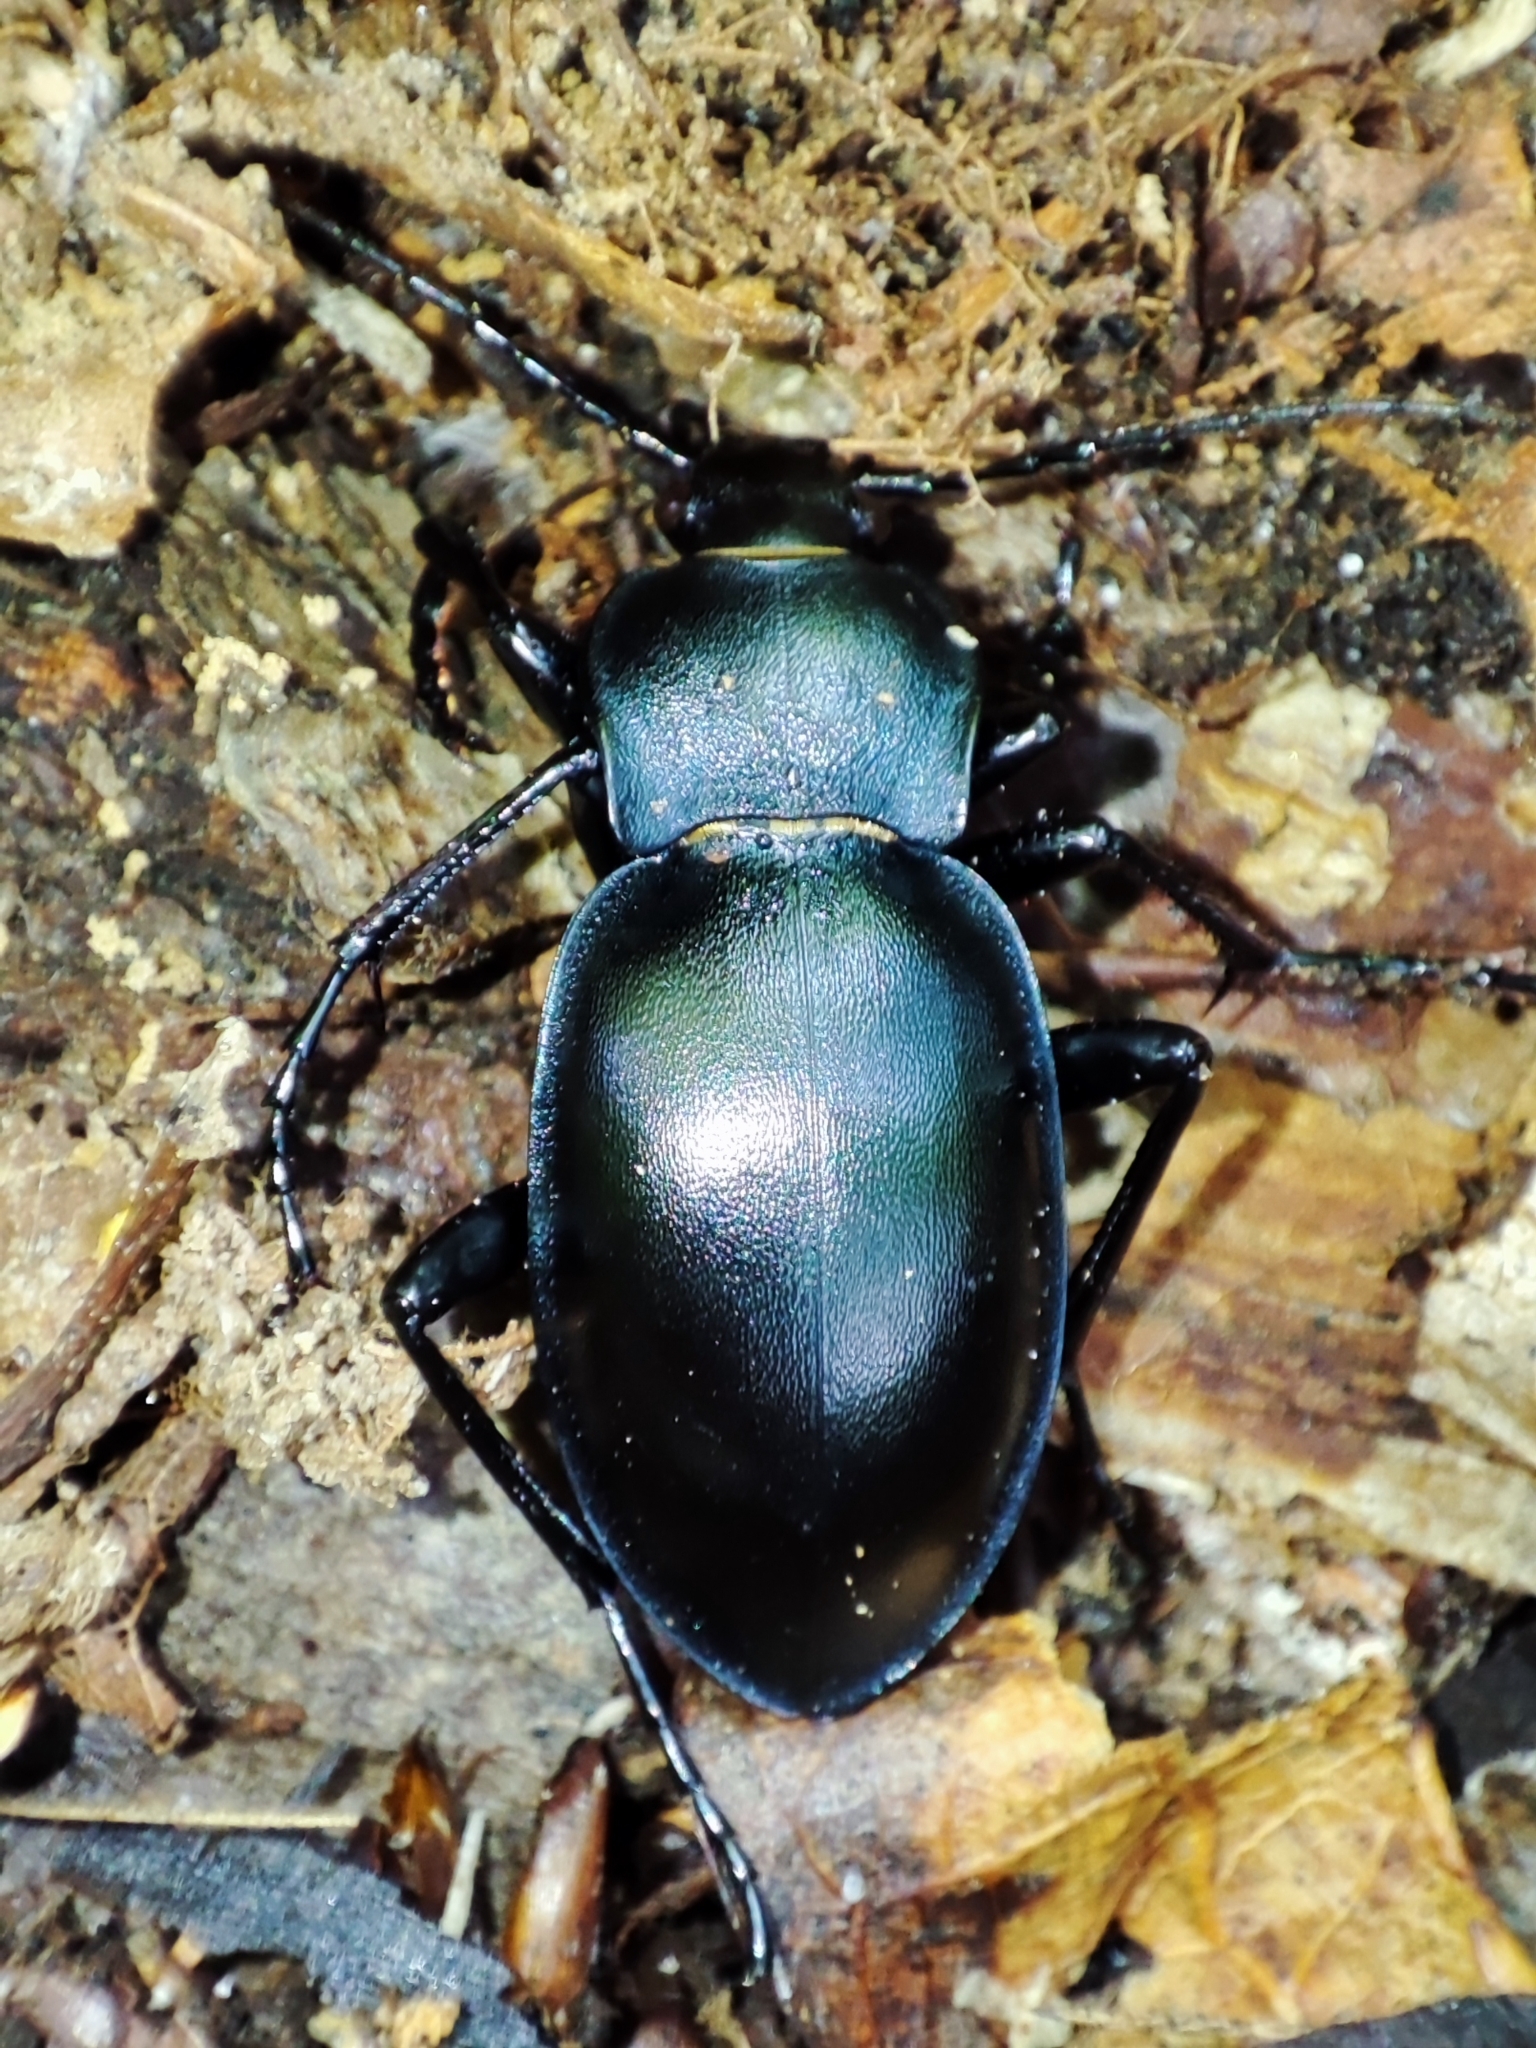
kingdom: Animalia
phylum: Arthropoda
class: Insecta
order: Coleoptera
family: Carabidae
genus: Carabus
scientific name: Carabus glabratus
